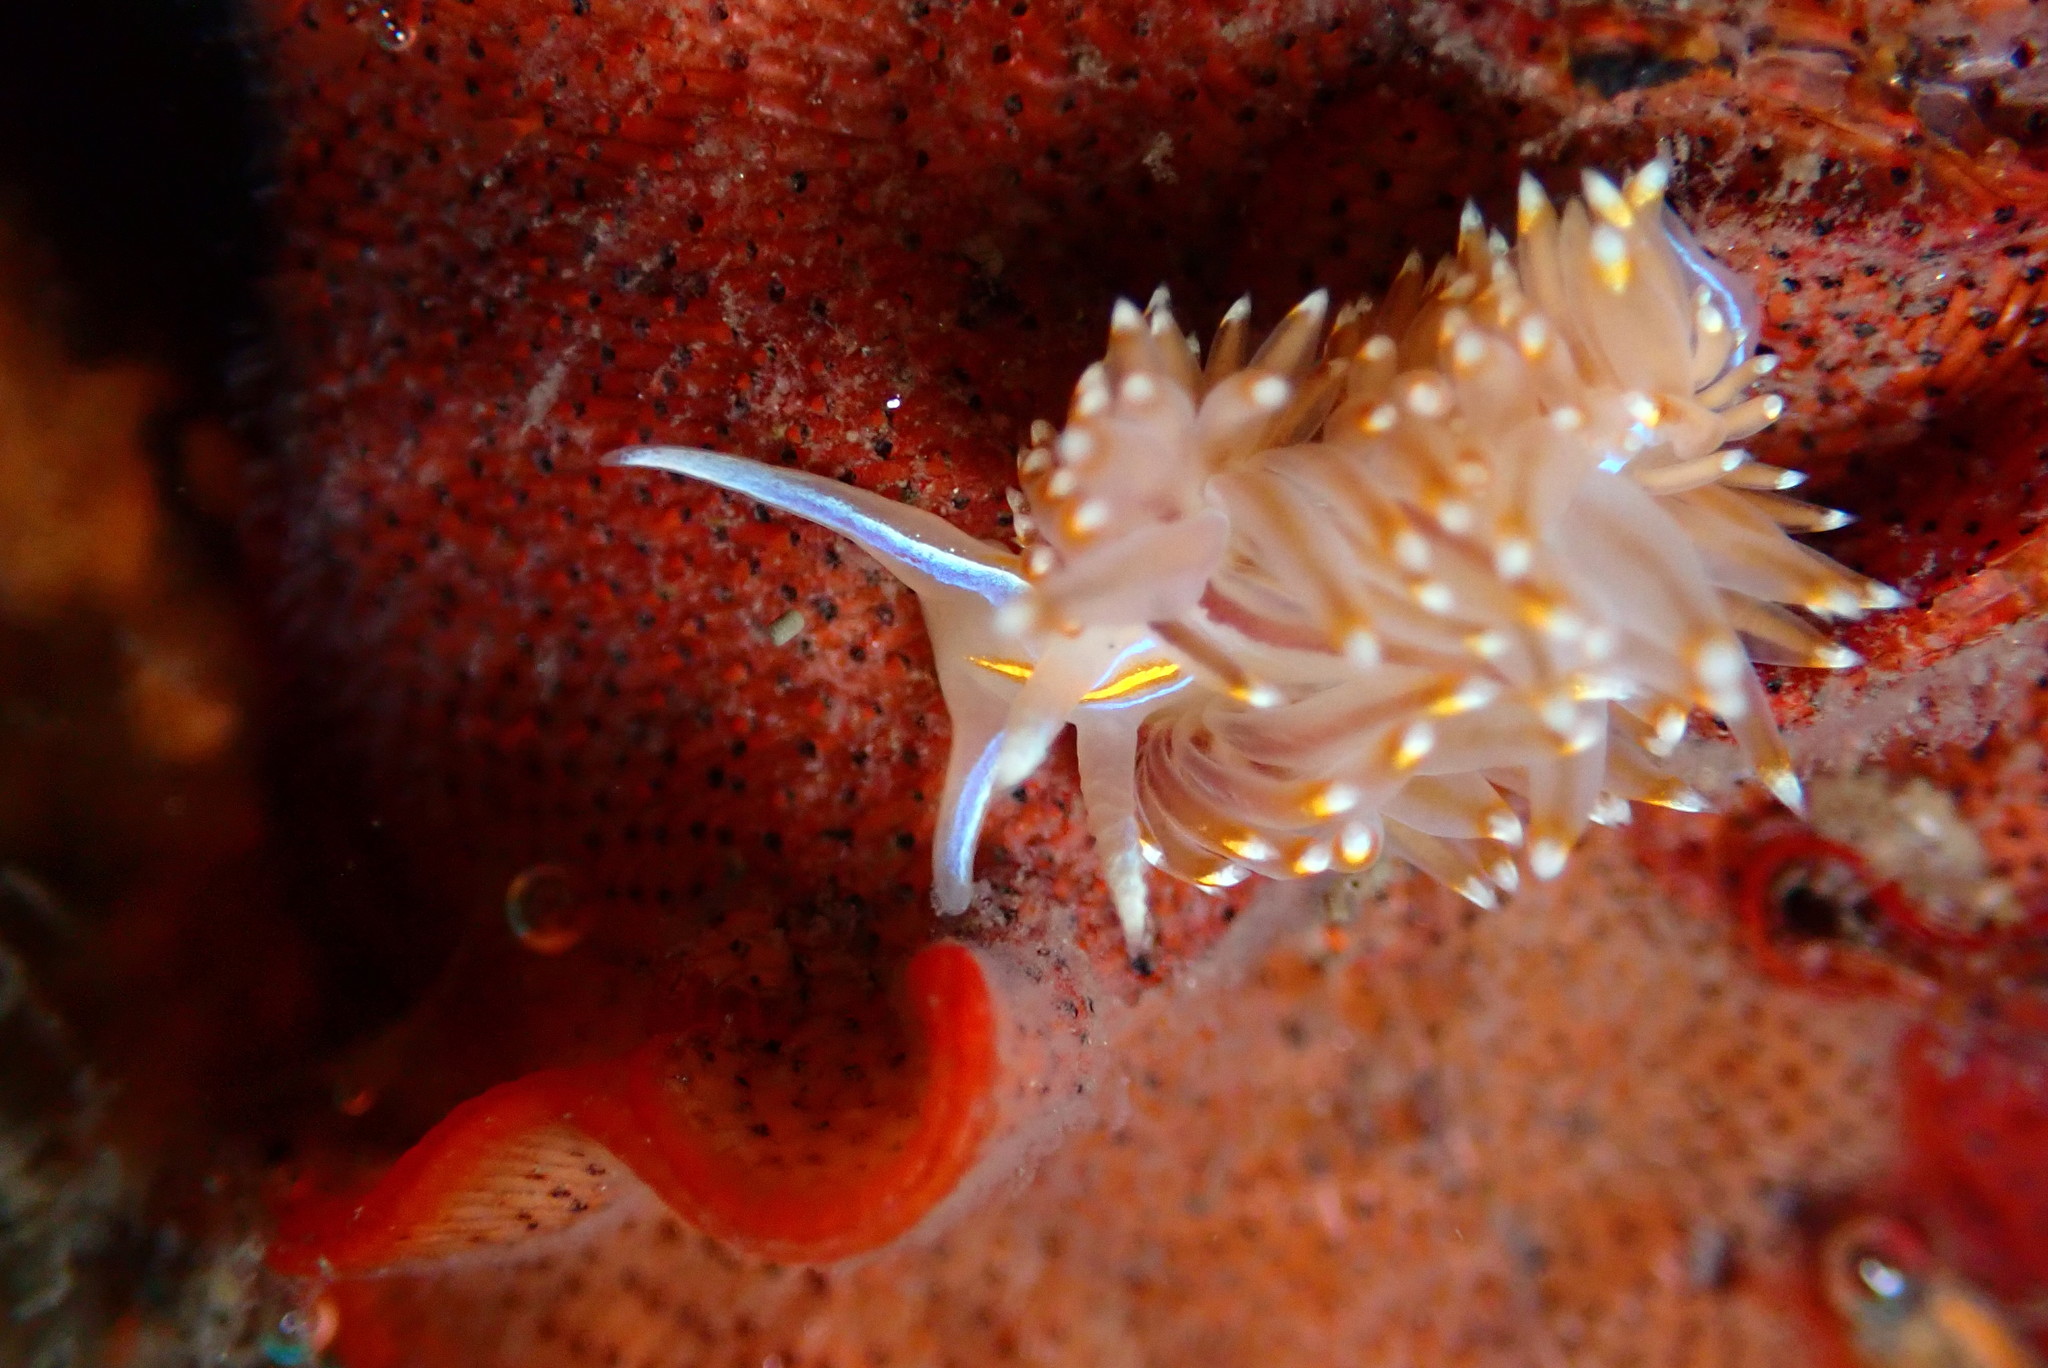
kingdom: Animalia
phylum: Mollusca
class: Gastropoda
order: Nudibranchia
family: Myrrhinidae
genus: Hermissenda
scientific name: Hermissenda opalescens
